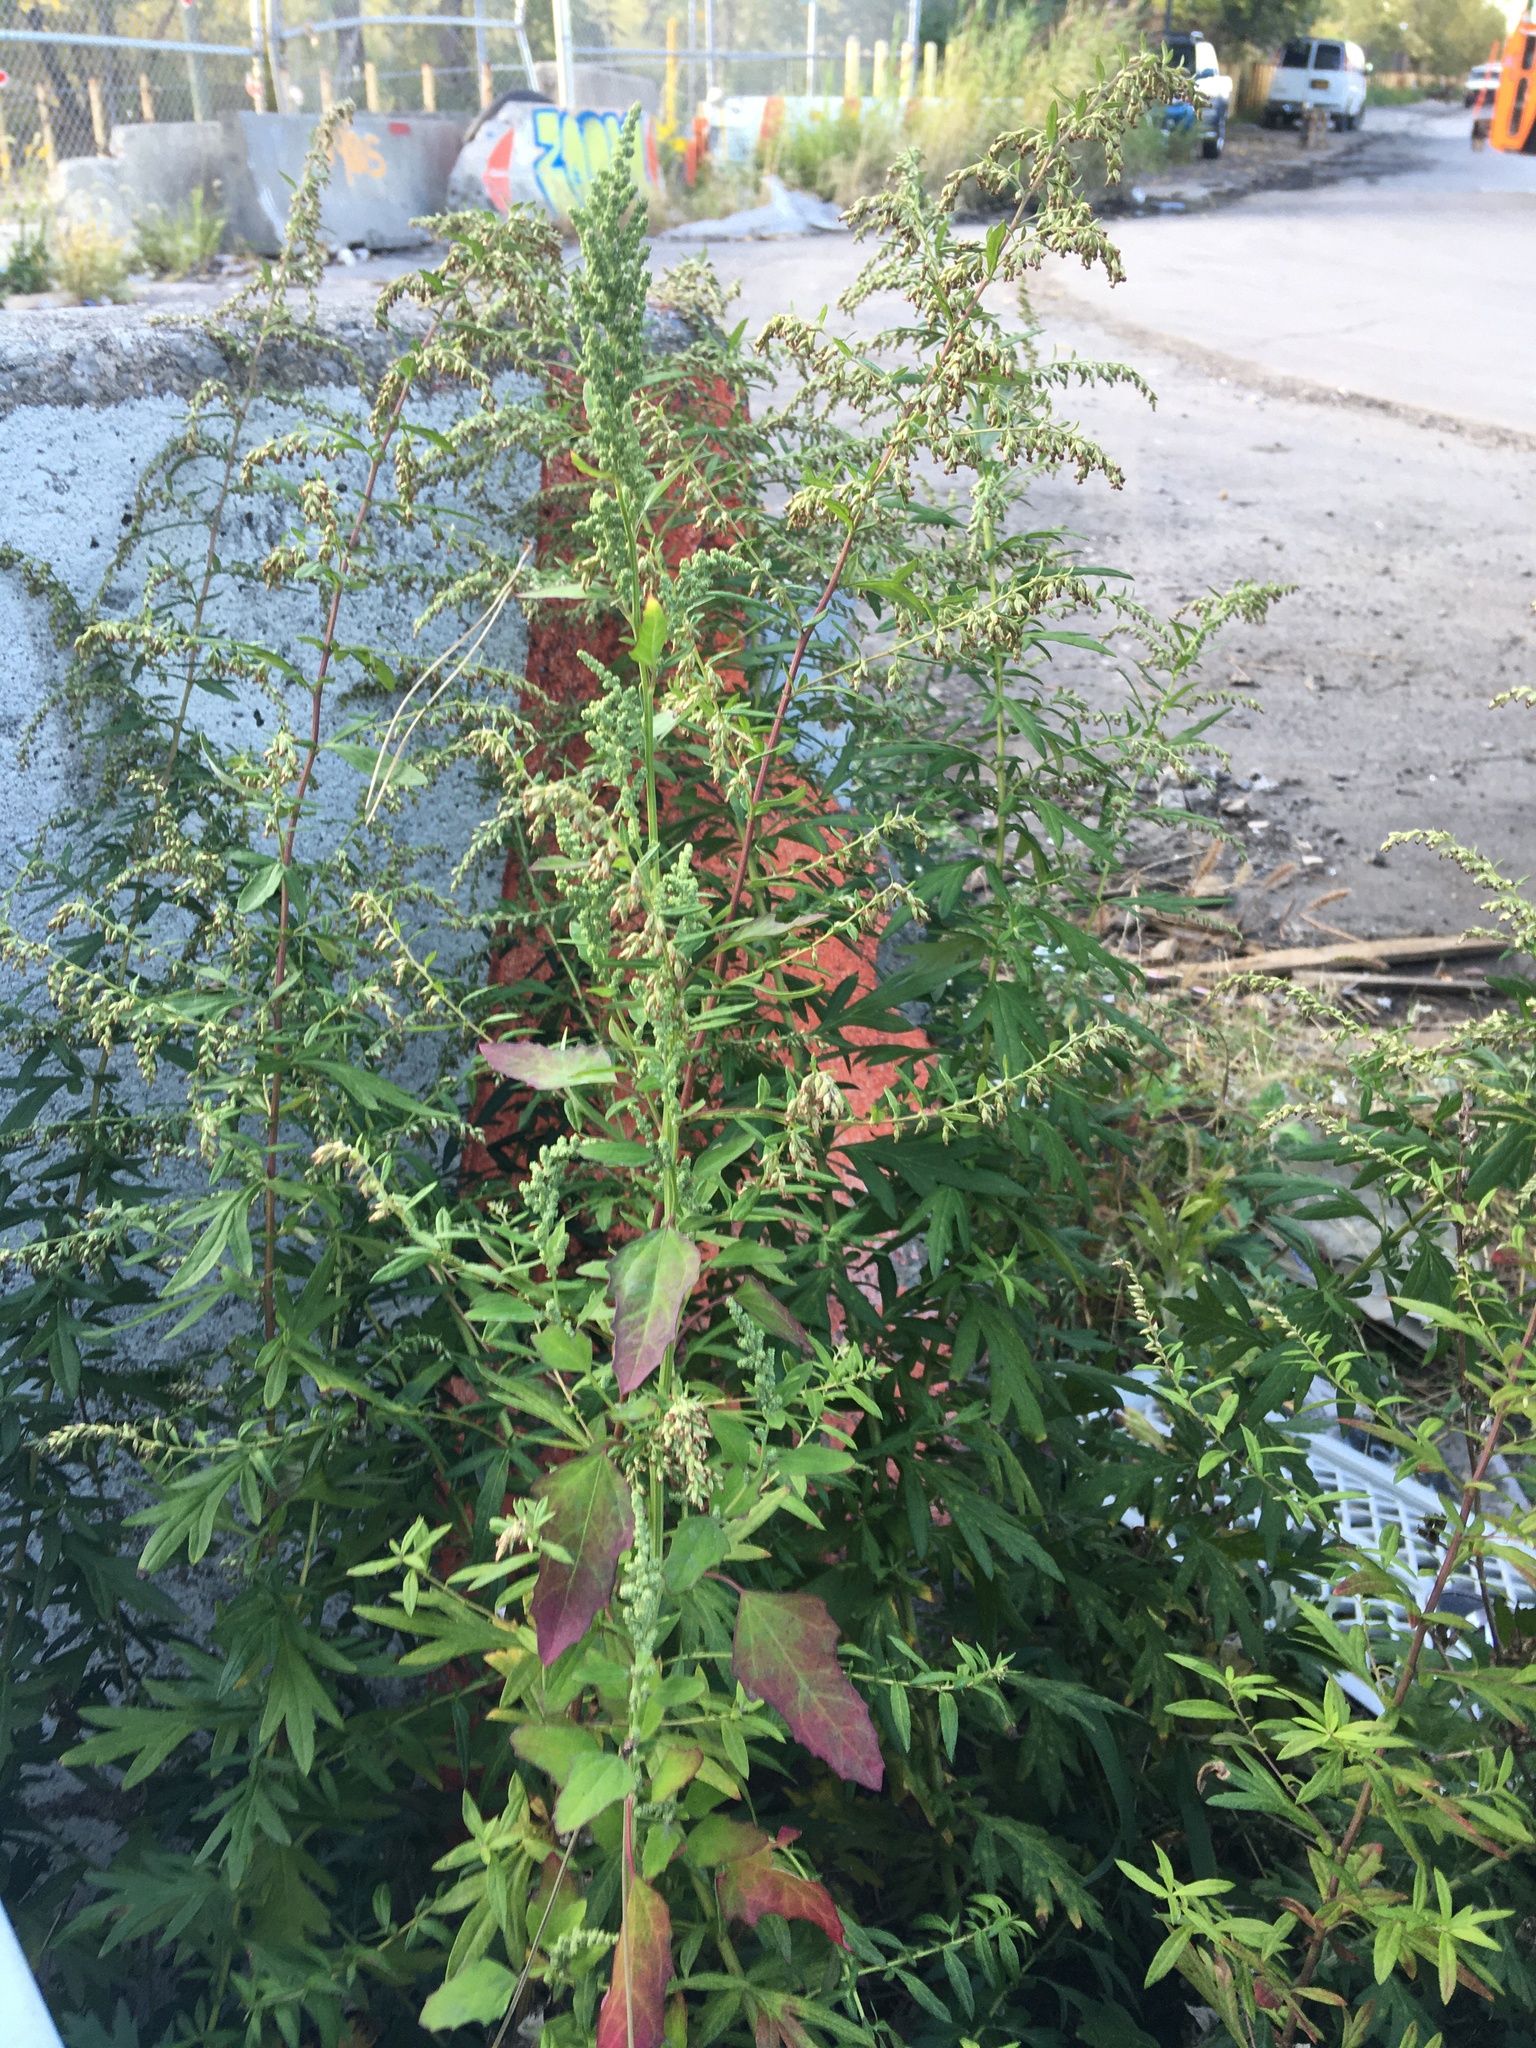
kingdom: Plantae
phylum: Tracheophyta
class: Magnoliopsida
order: Asterales
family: Asteraceae
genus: Artemisia
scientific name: Artemisia vulgaris
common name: Mugwort
